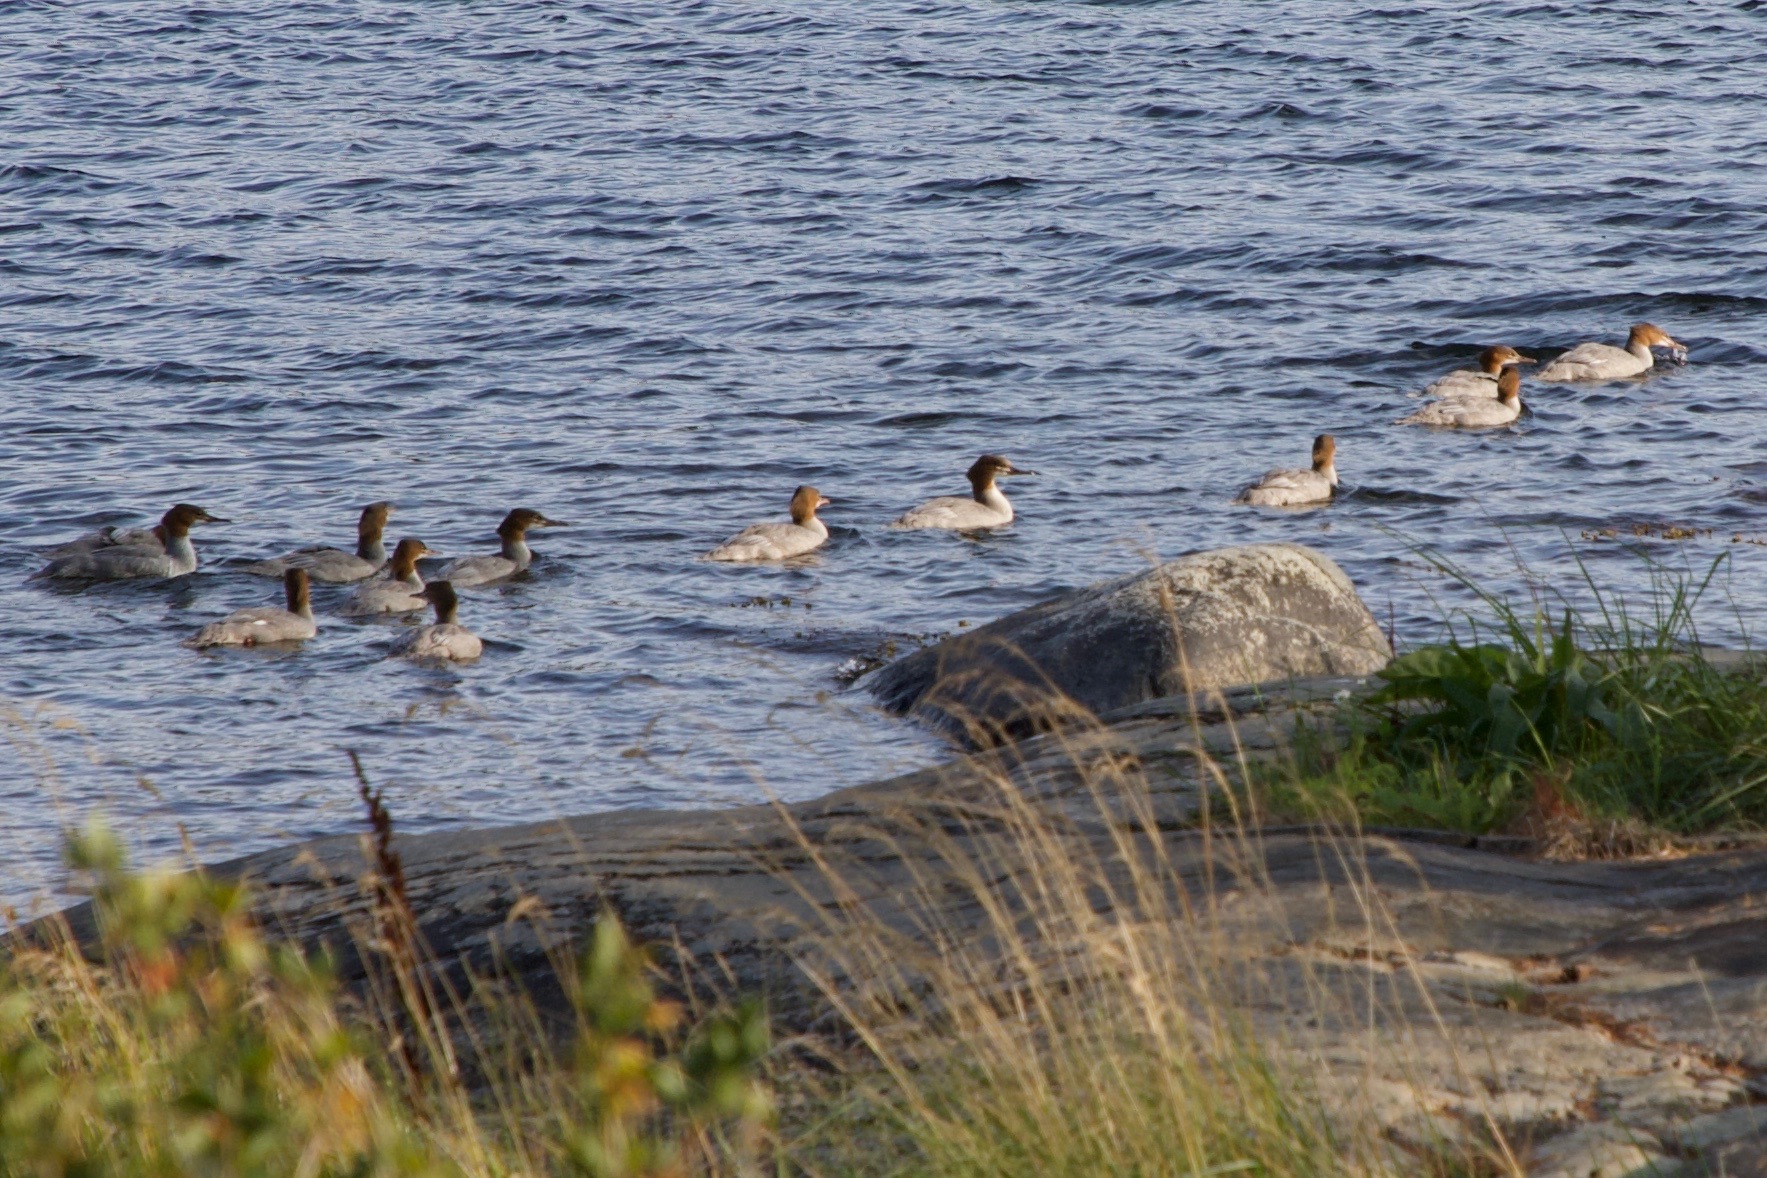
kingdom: Animalia
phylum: Chordata
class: Aves
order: Anseriformes
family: Anatidae
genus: Mergus
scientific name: Mergus merganser
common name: Common merganser
